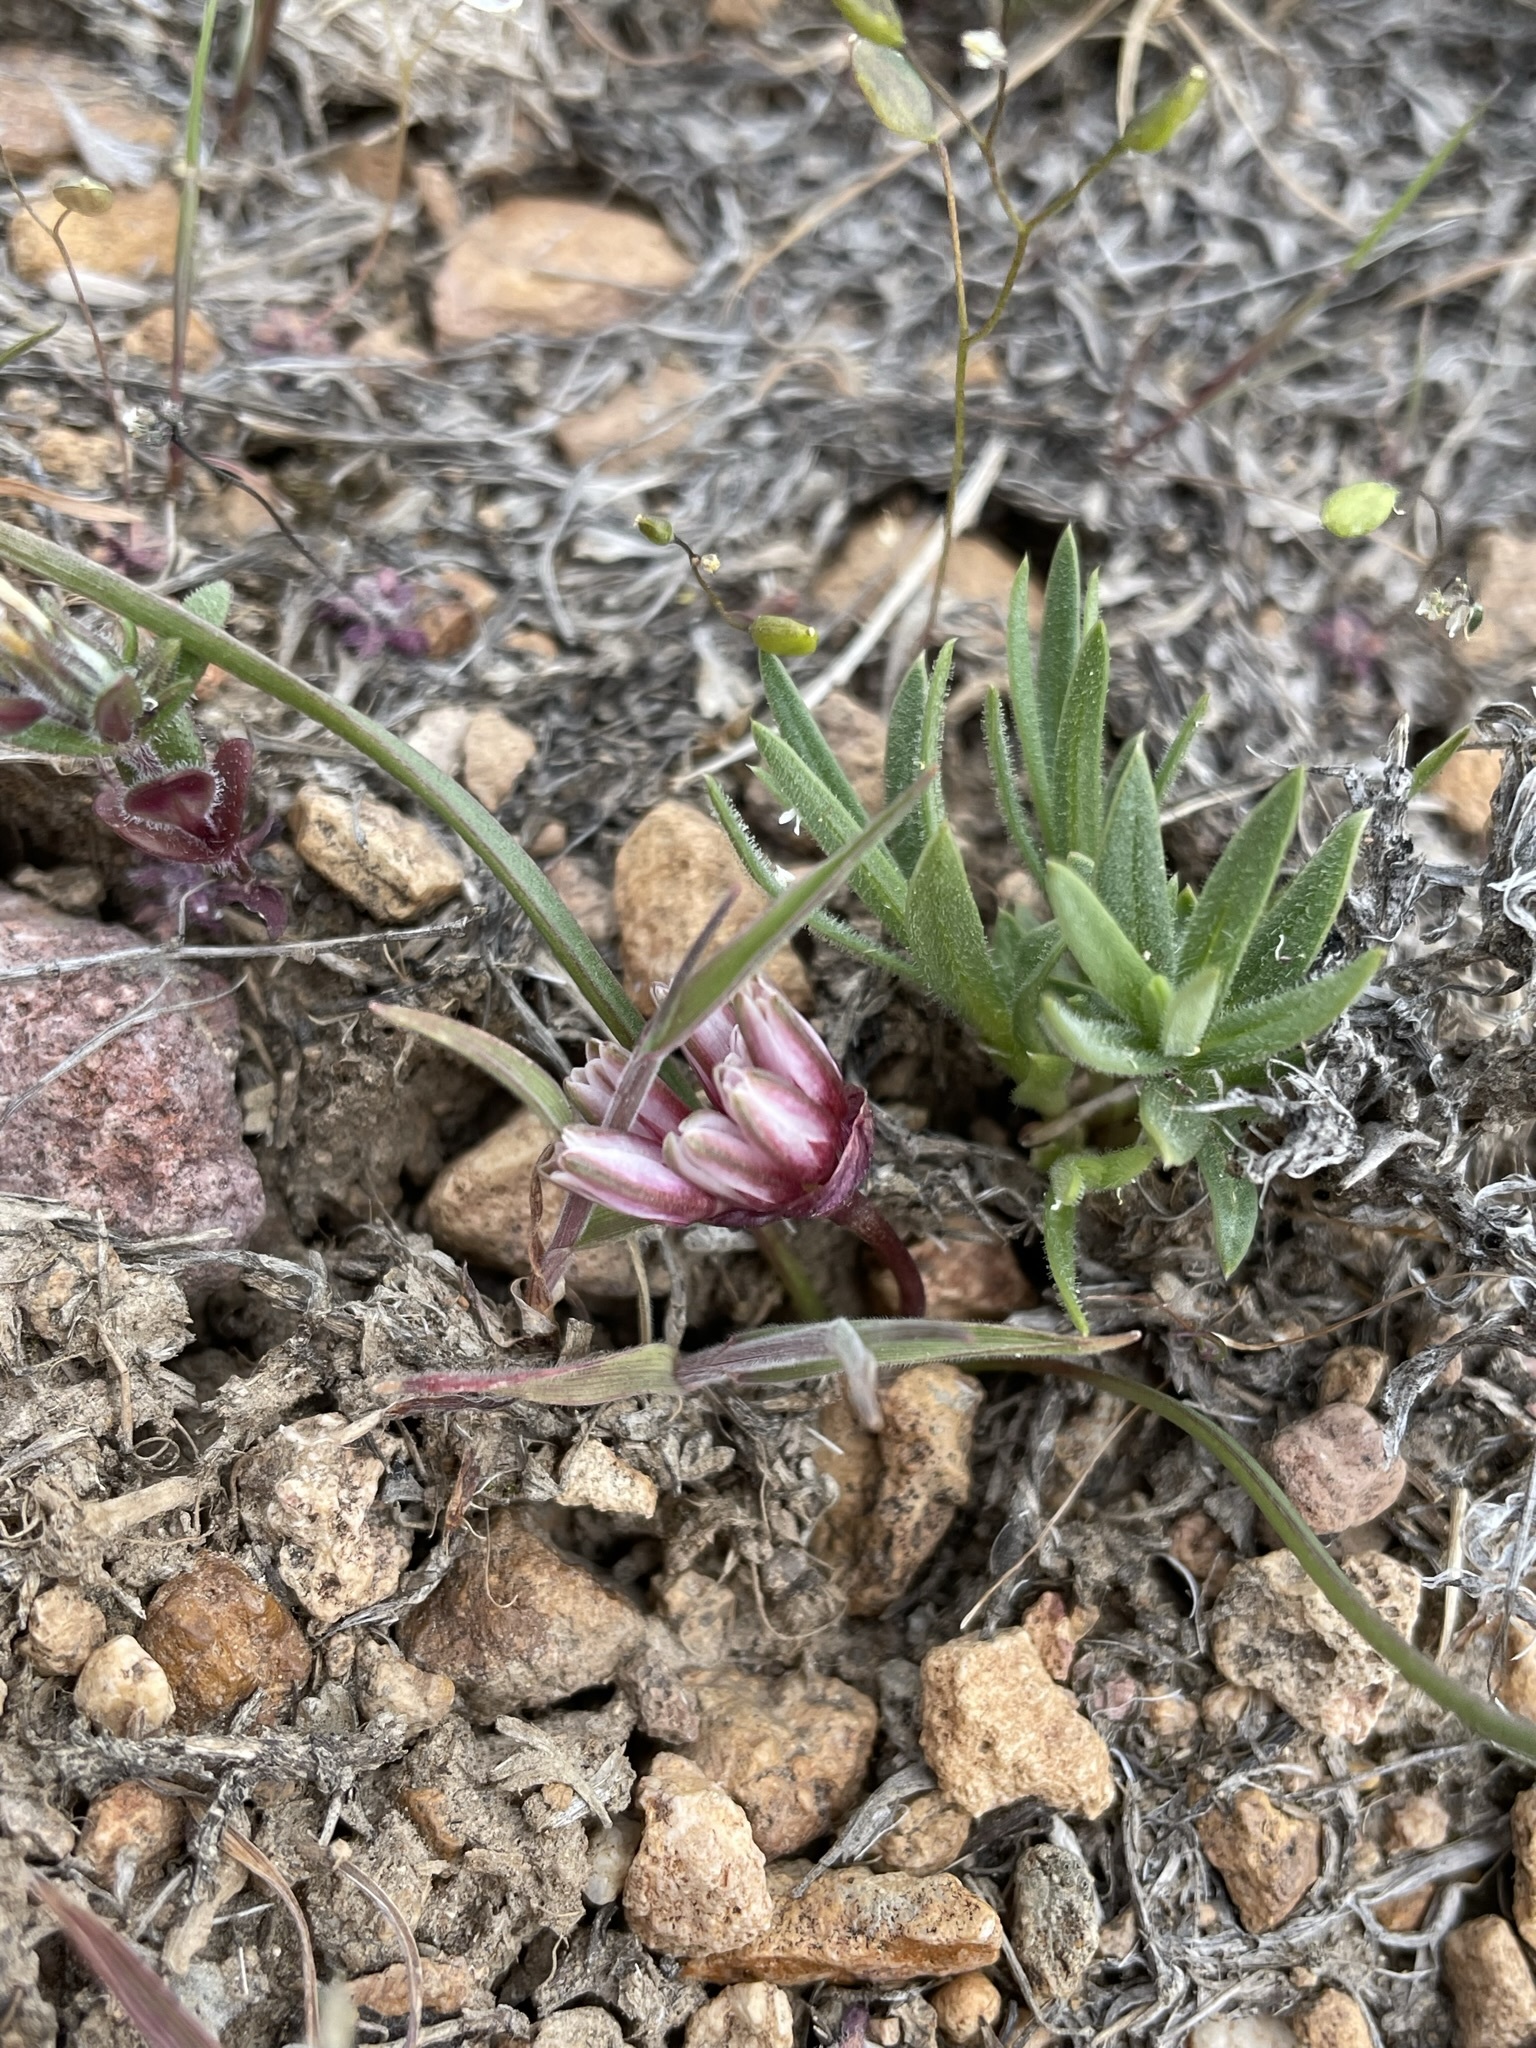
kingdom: Plantae
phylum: Tracheophyta
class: Liliopsida
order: Asparagales
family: Amaryllidaceae
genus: Allium
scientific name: Allium parvum
